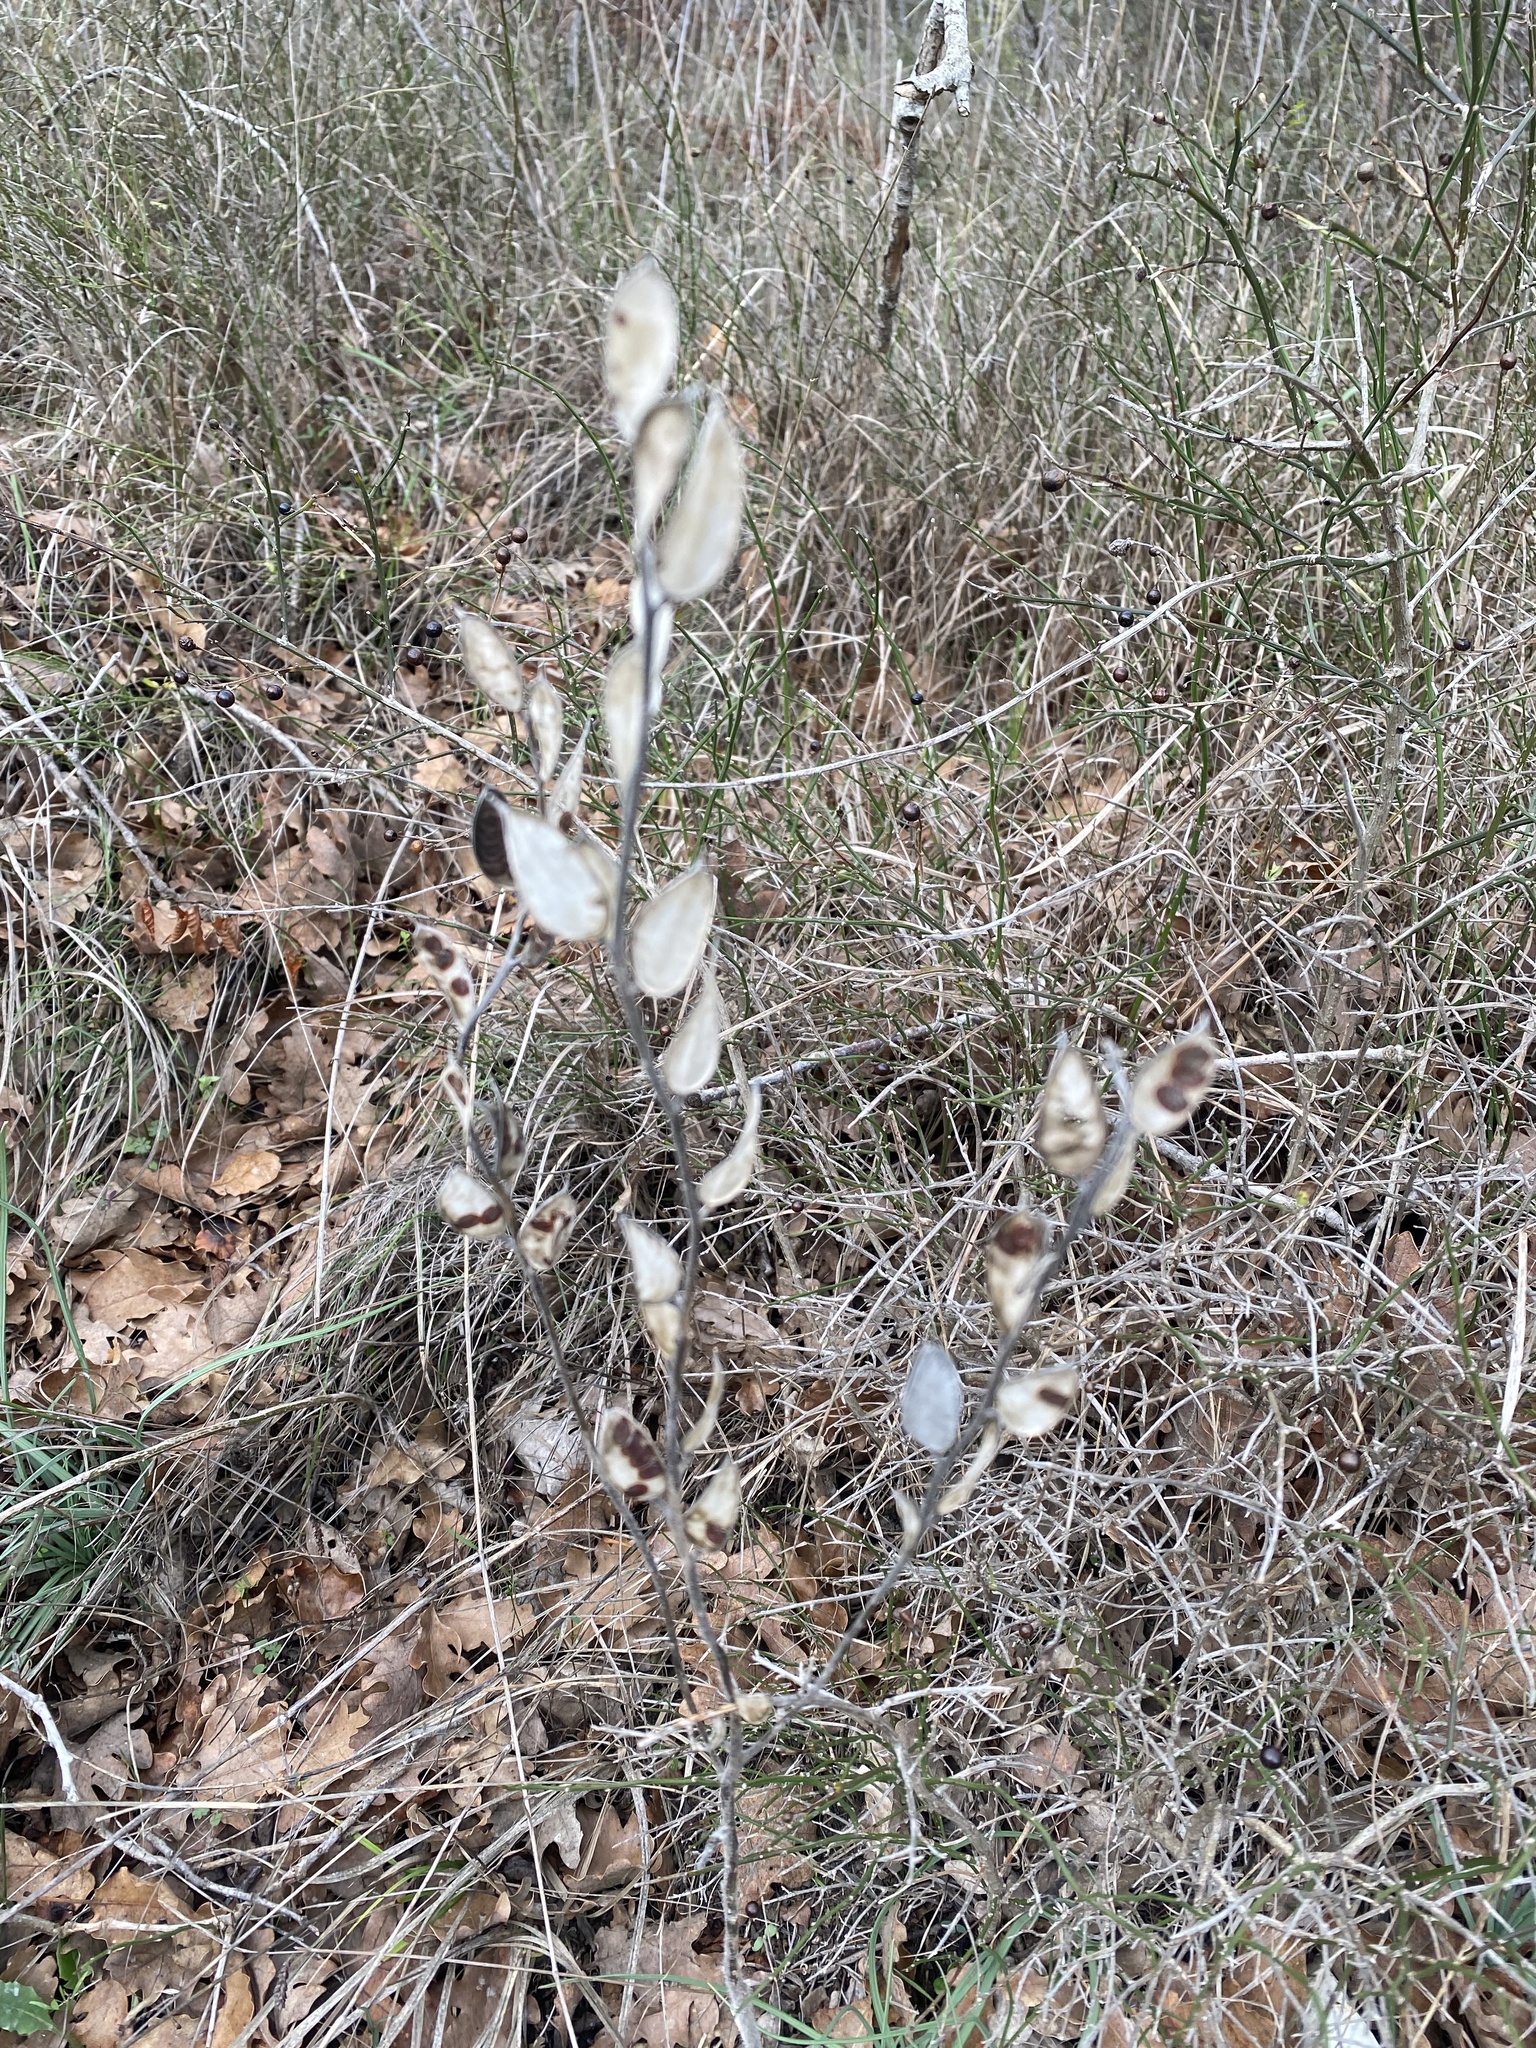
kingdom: Plantae
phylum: Tracheophyta
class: Magnoliopsida
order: Brassicales
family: Brassicaceae
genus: Fibigia
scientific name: Fibigia clypeata
